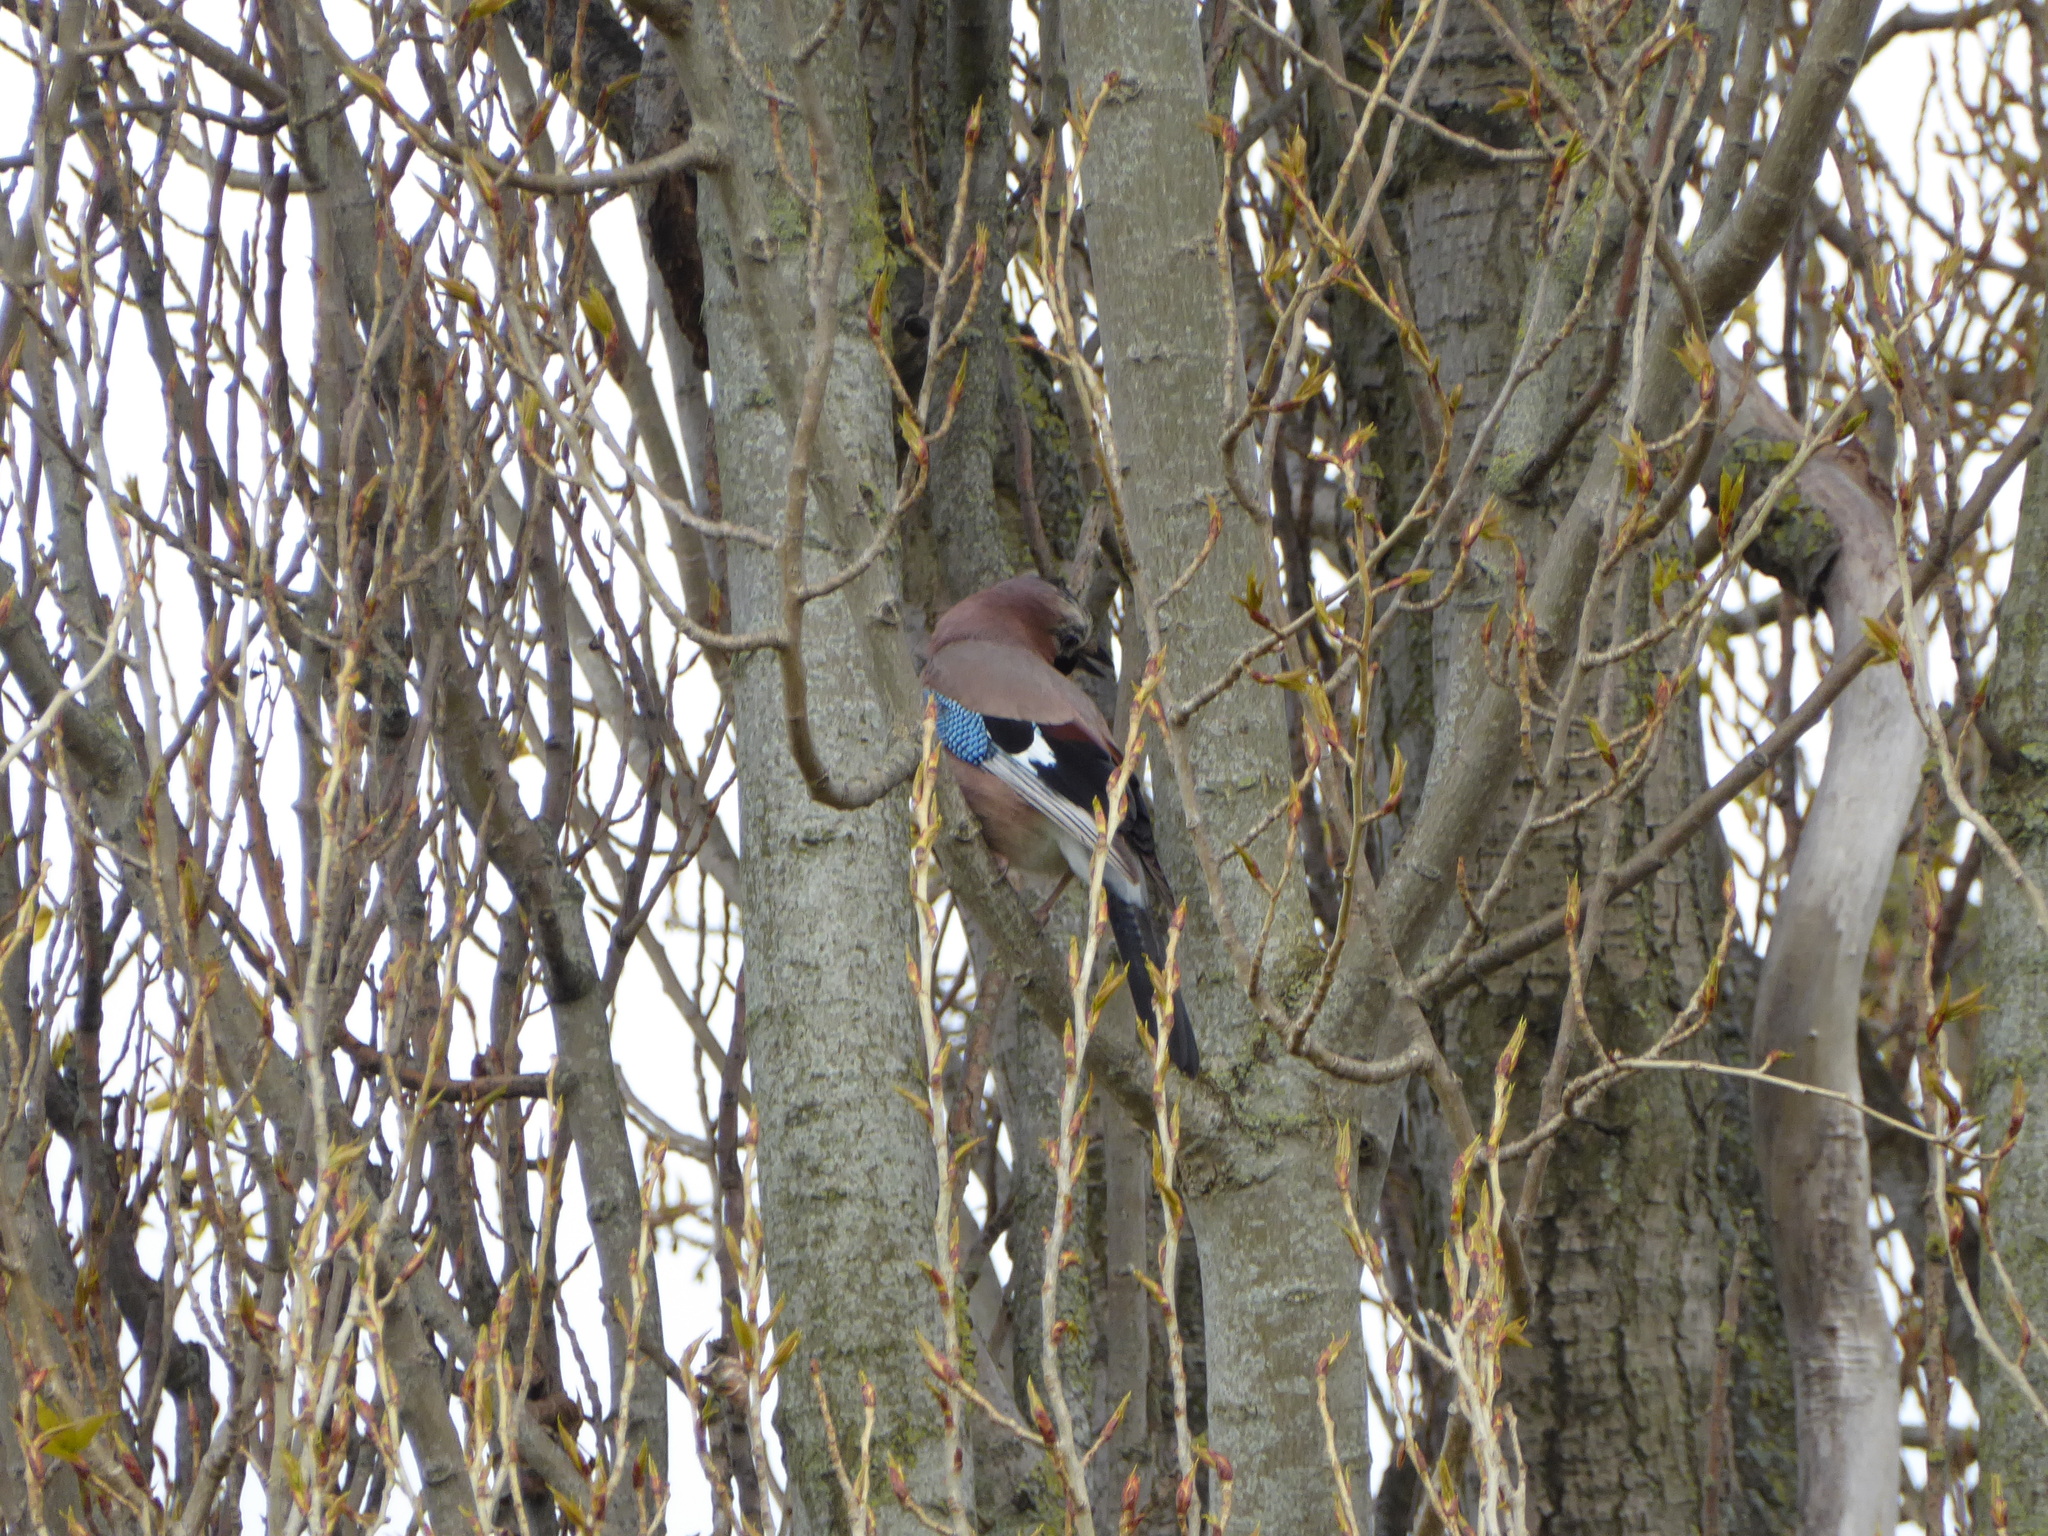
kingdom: Animalia
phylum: Chordata
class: Aves
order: Passeriformes
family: Corvidae
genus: Garrulus
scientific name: Garrulus glandarius
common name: Eurasian jay
